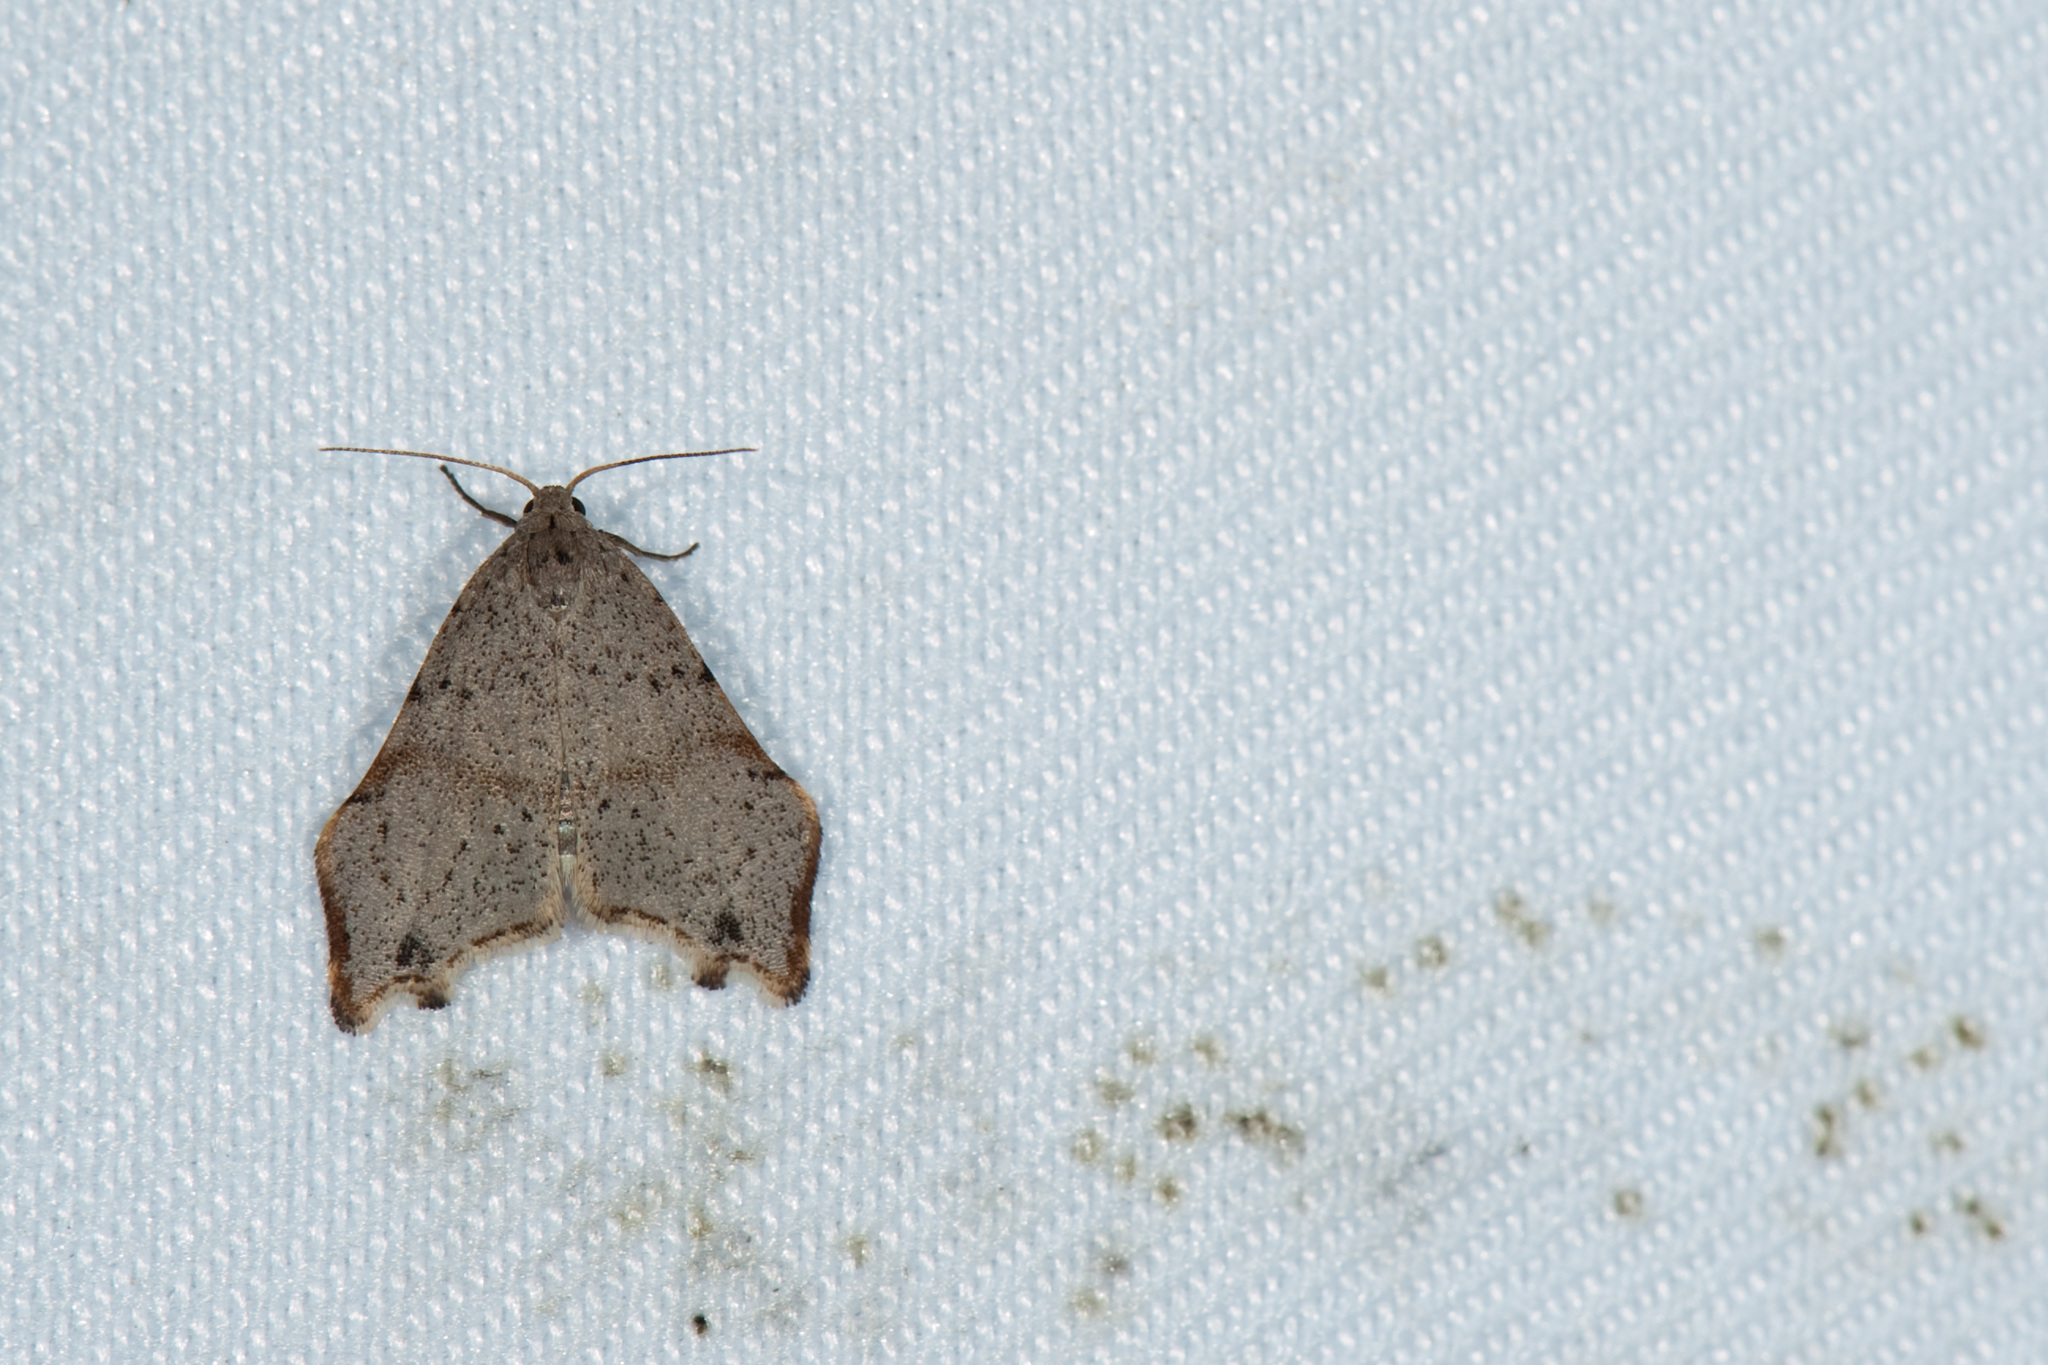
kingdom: Animalia
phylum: Arthropoda
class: Insecta
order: Lepidoptera
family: Erebidae
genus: Oxacme
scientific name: Oxacme cretacea
